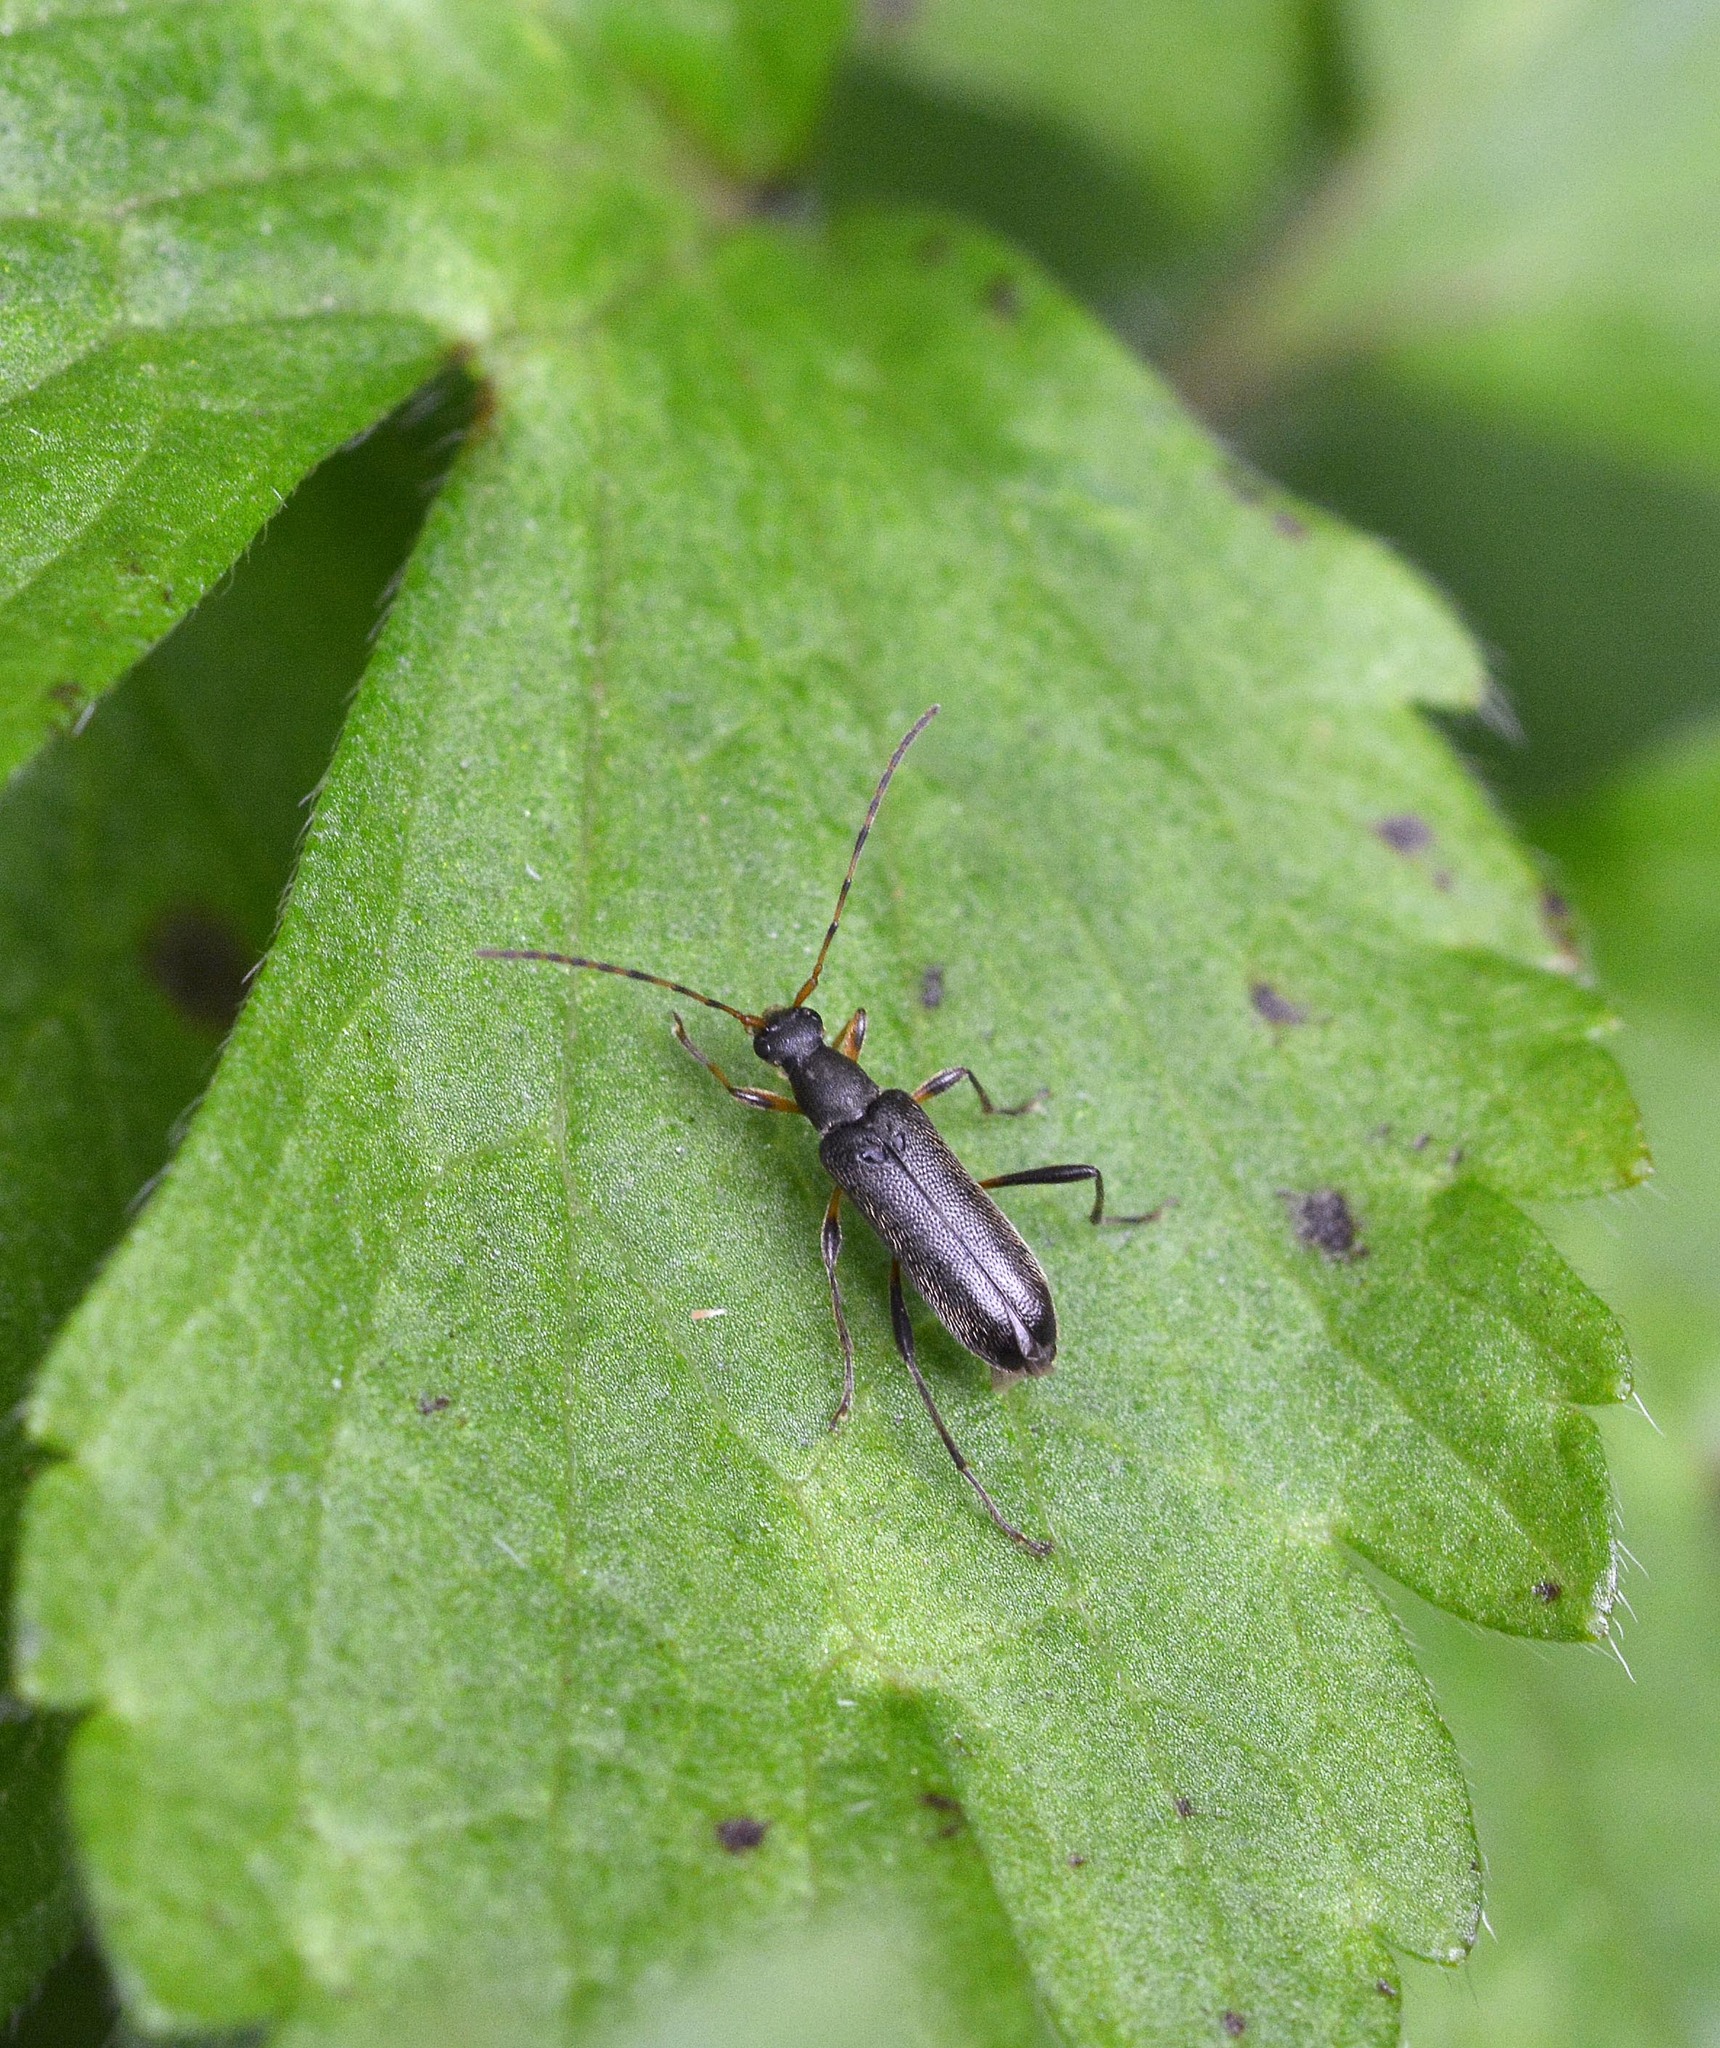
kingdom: Animalia
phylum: Arthropoda
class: Insecta
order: Coleoptera
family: Cerambycidae
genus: Grammoptera
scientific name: Grammoptera ruficornis
